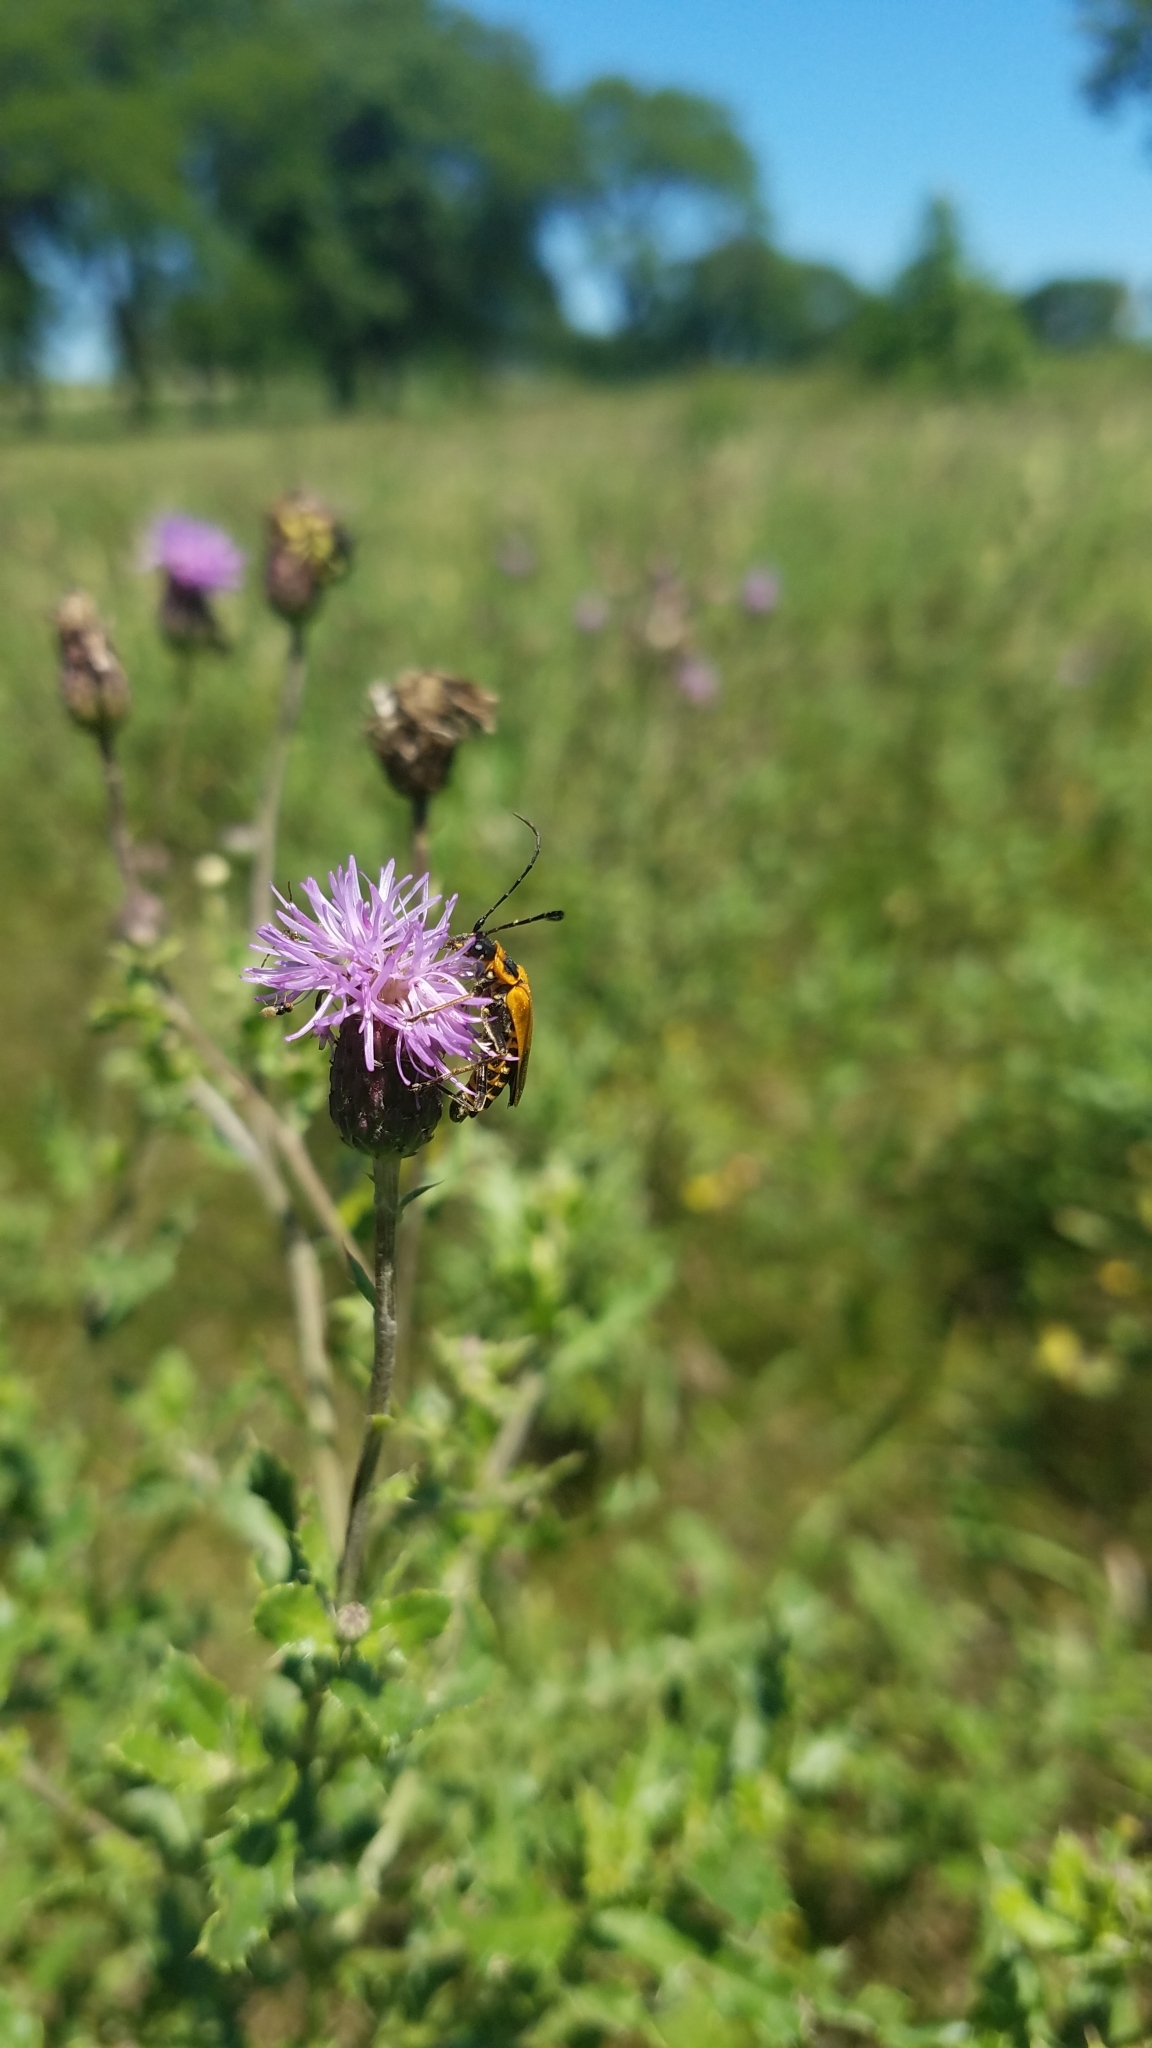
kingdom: Animalia
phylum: Arthropoda
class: Insecta
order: Coleoptera
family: Cantharidae
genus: Chauliognathus
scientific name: Chauliognathus pensylvanicus
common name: Goldenrod soldier beetle
